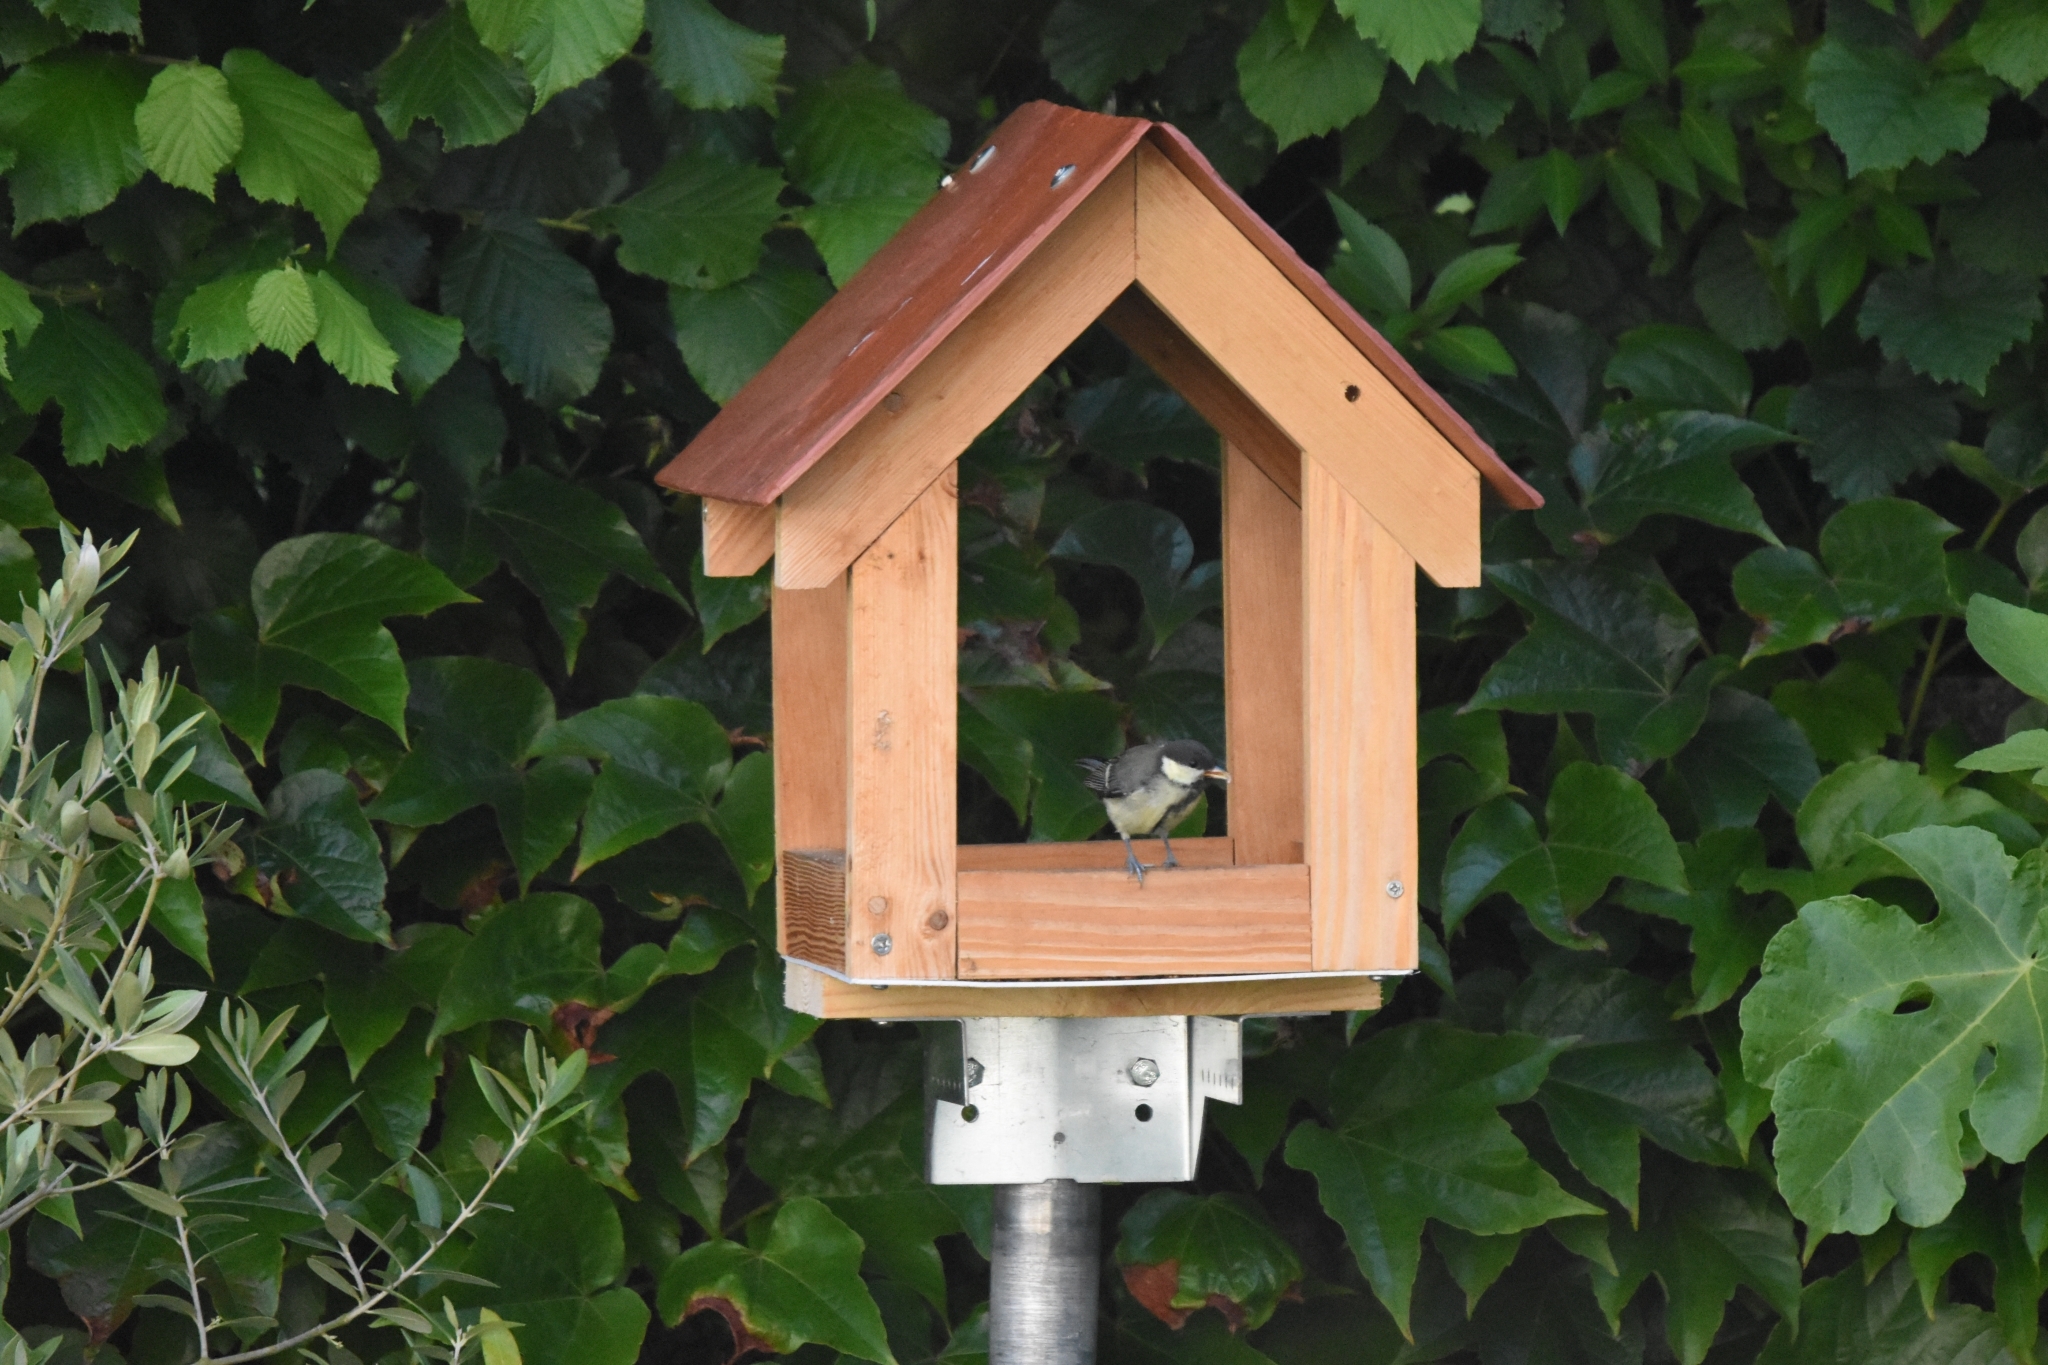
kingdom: Animalia
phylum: Chordata
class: Aves
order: Passeriformes
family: Paridae
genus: Parus
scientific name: Parus major
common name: Great tit
